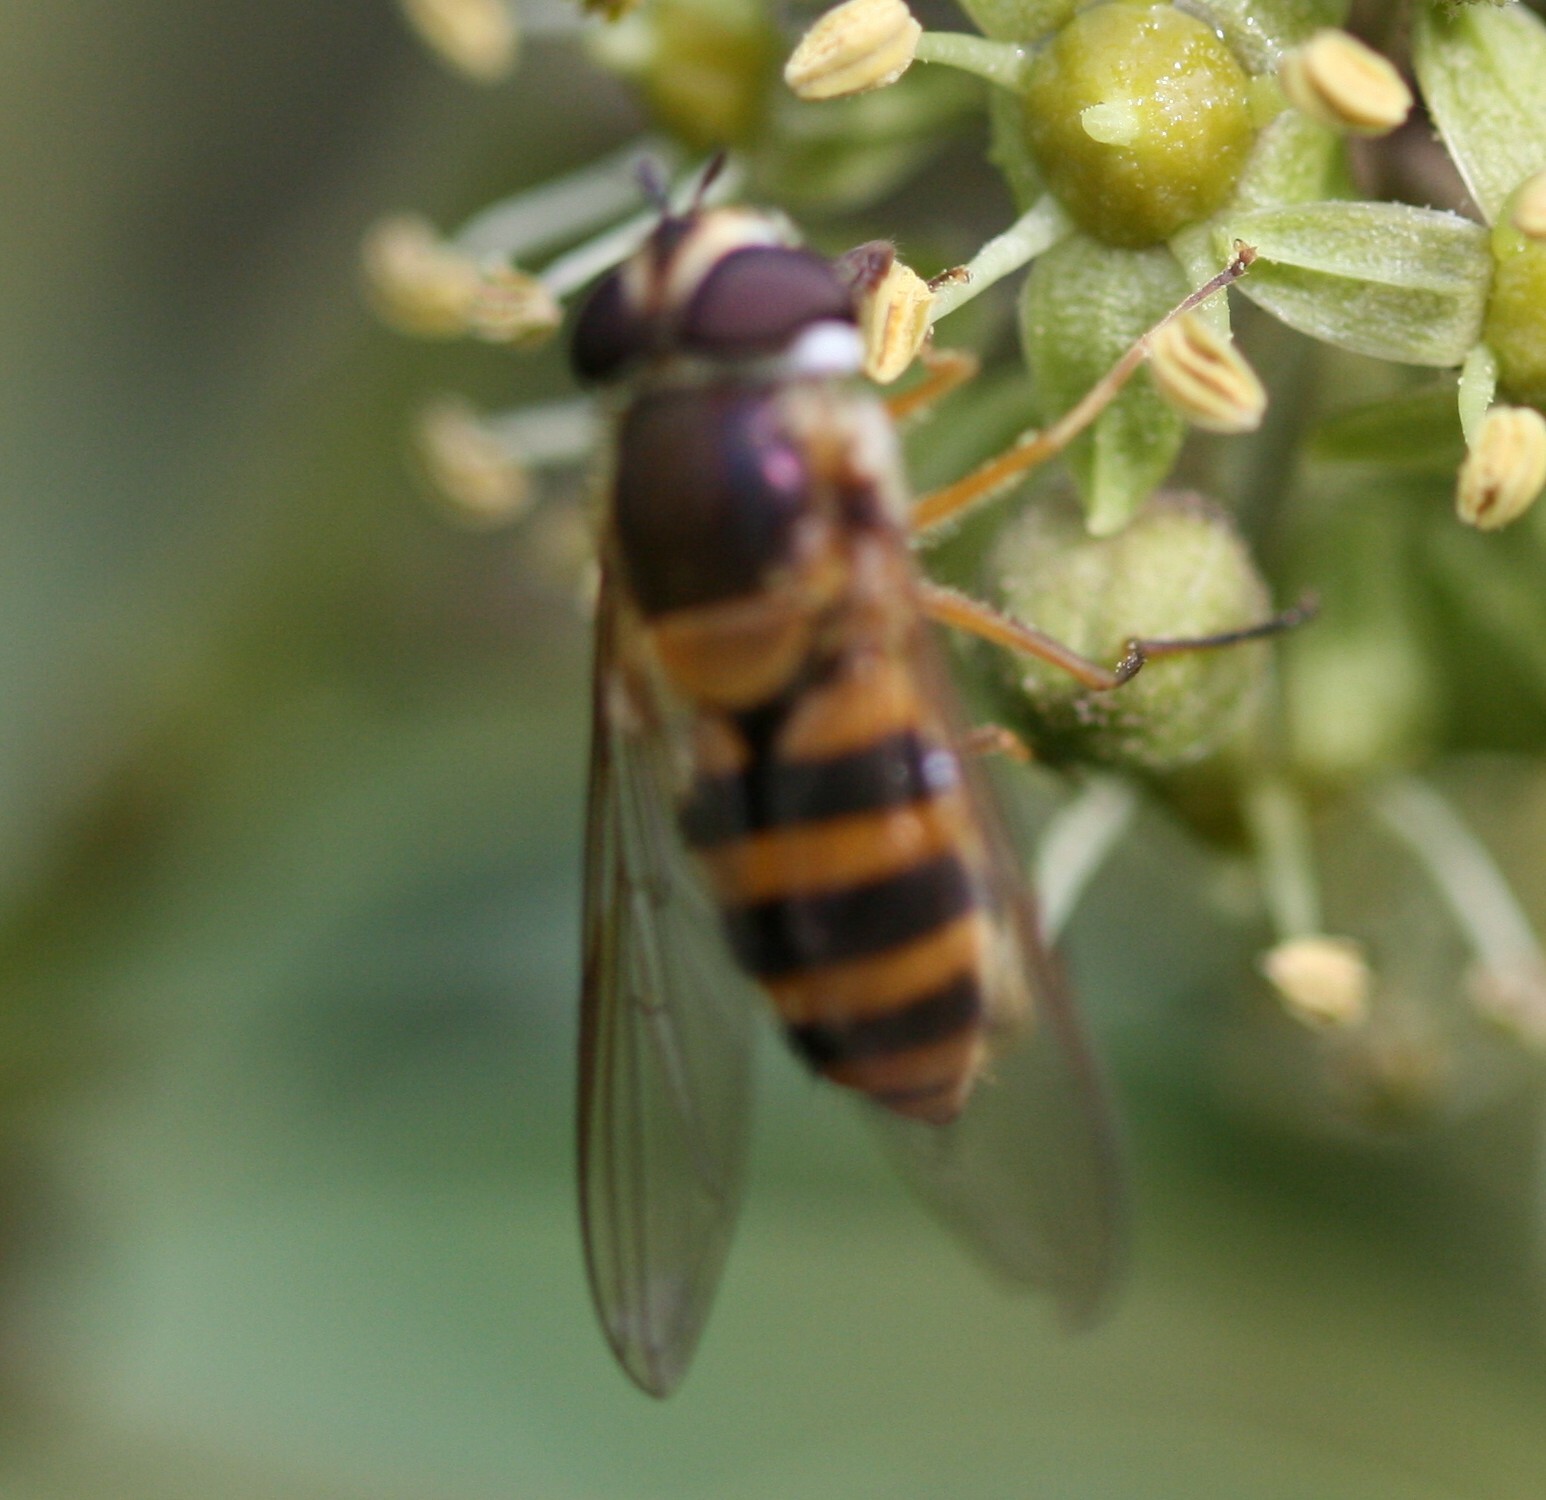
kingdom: Animalia
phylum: Arthropoda
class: Insecta
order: Diptera
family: Syrphidae
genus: Epistrophe
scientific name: Epistrophe grossulariae
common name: Black-horned smoothtail
